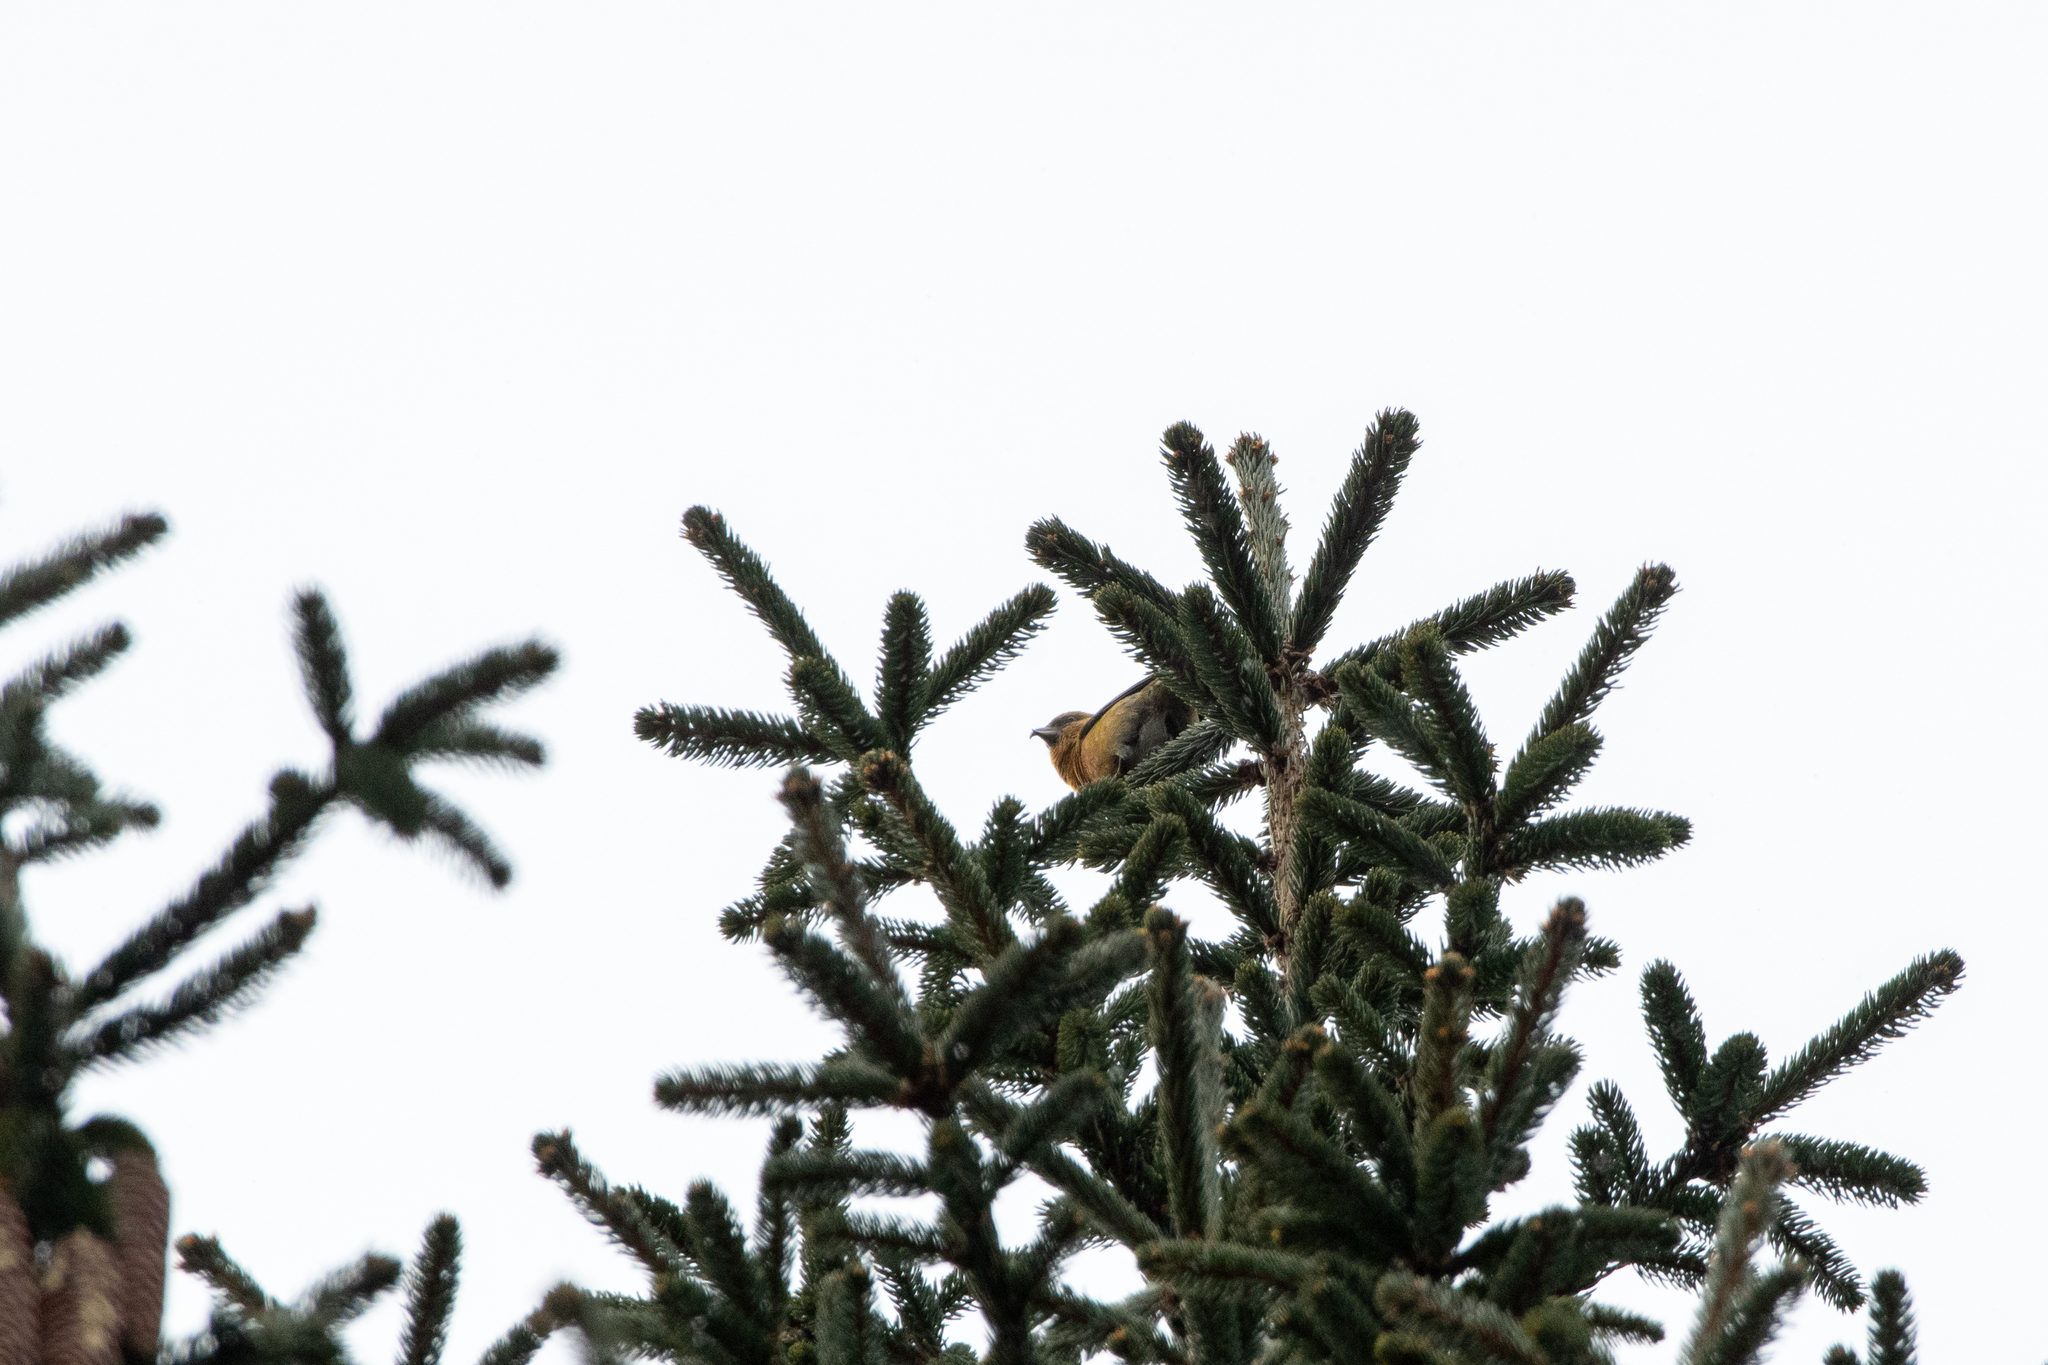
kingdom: Animalia
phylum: Chordata
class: Aves
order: Passeriformes
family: Fringillidae
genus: Loxia
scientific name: Loxia curvirostra
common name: Red crossbill
